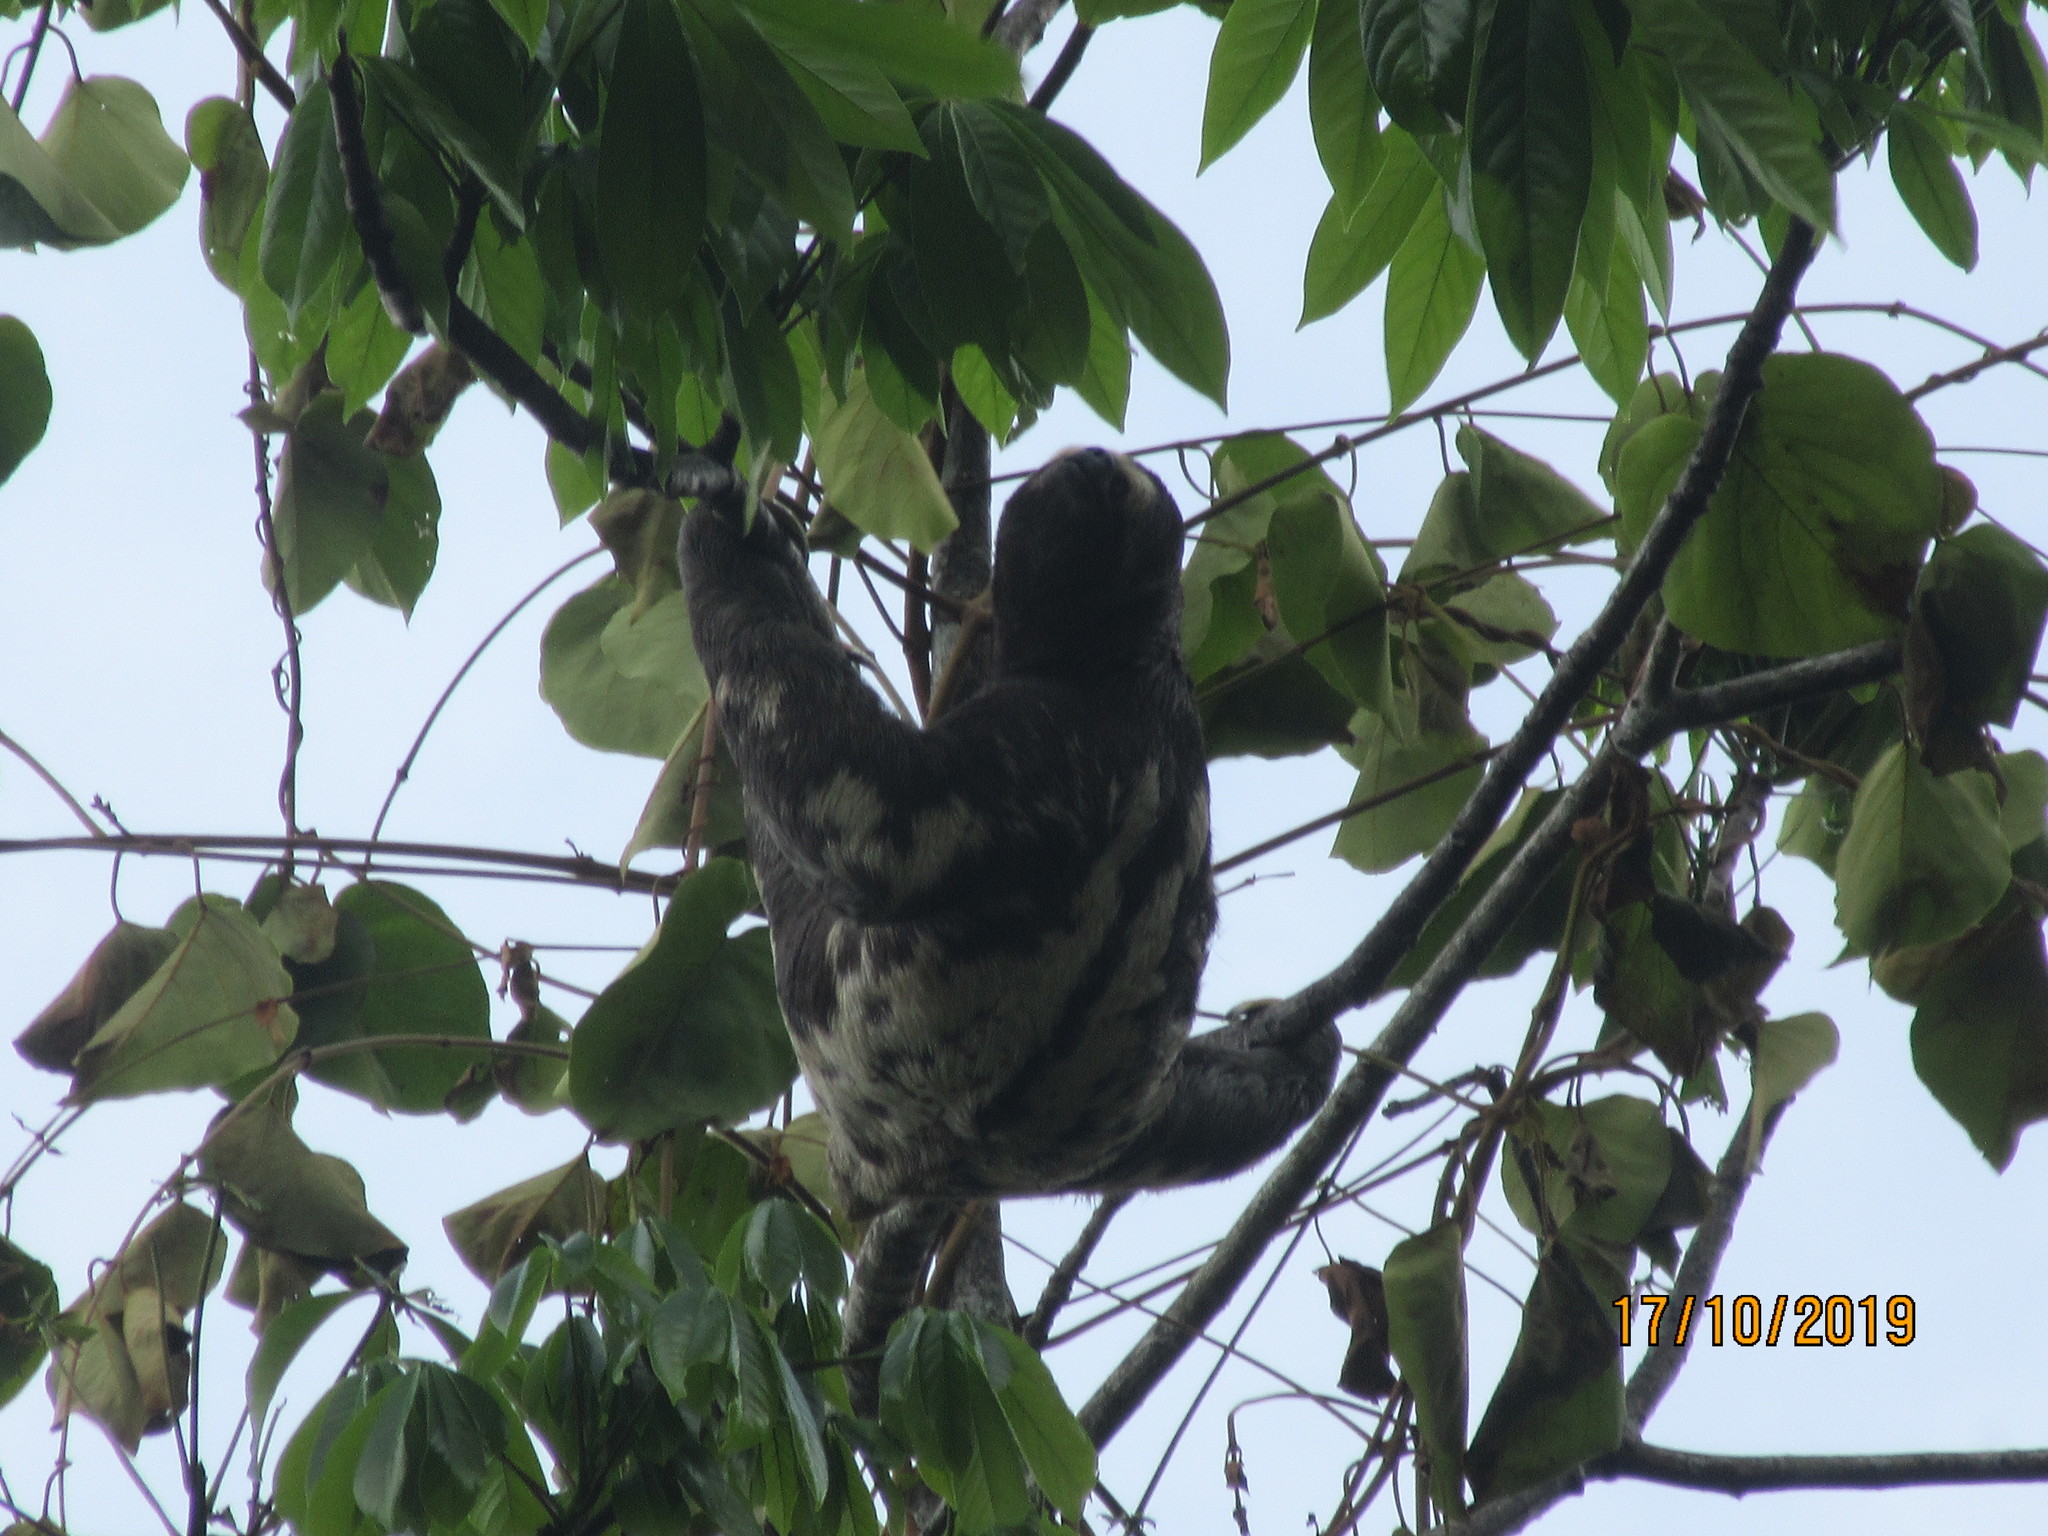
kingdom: Animalia
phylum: Chordata
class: Mammalia
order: Pilosa
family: Bradypodidae
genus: Bradypus
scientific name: Bradypus variegatus
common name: Brown-throated three-toed sloth
